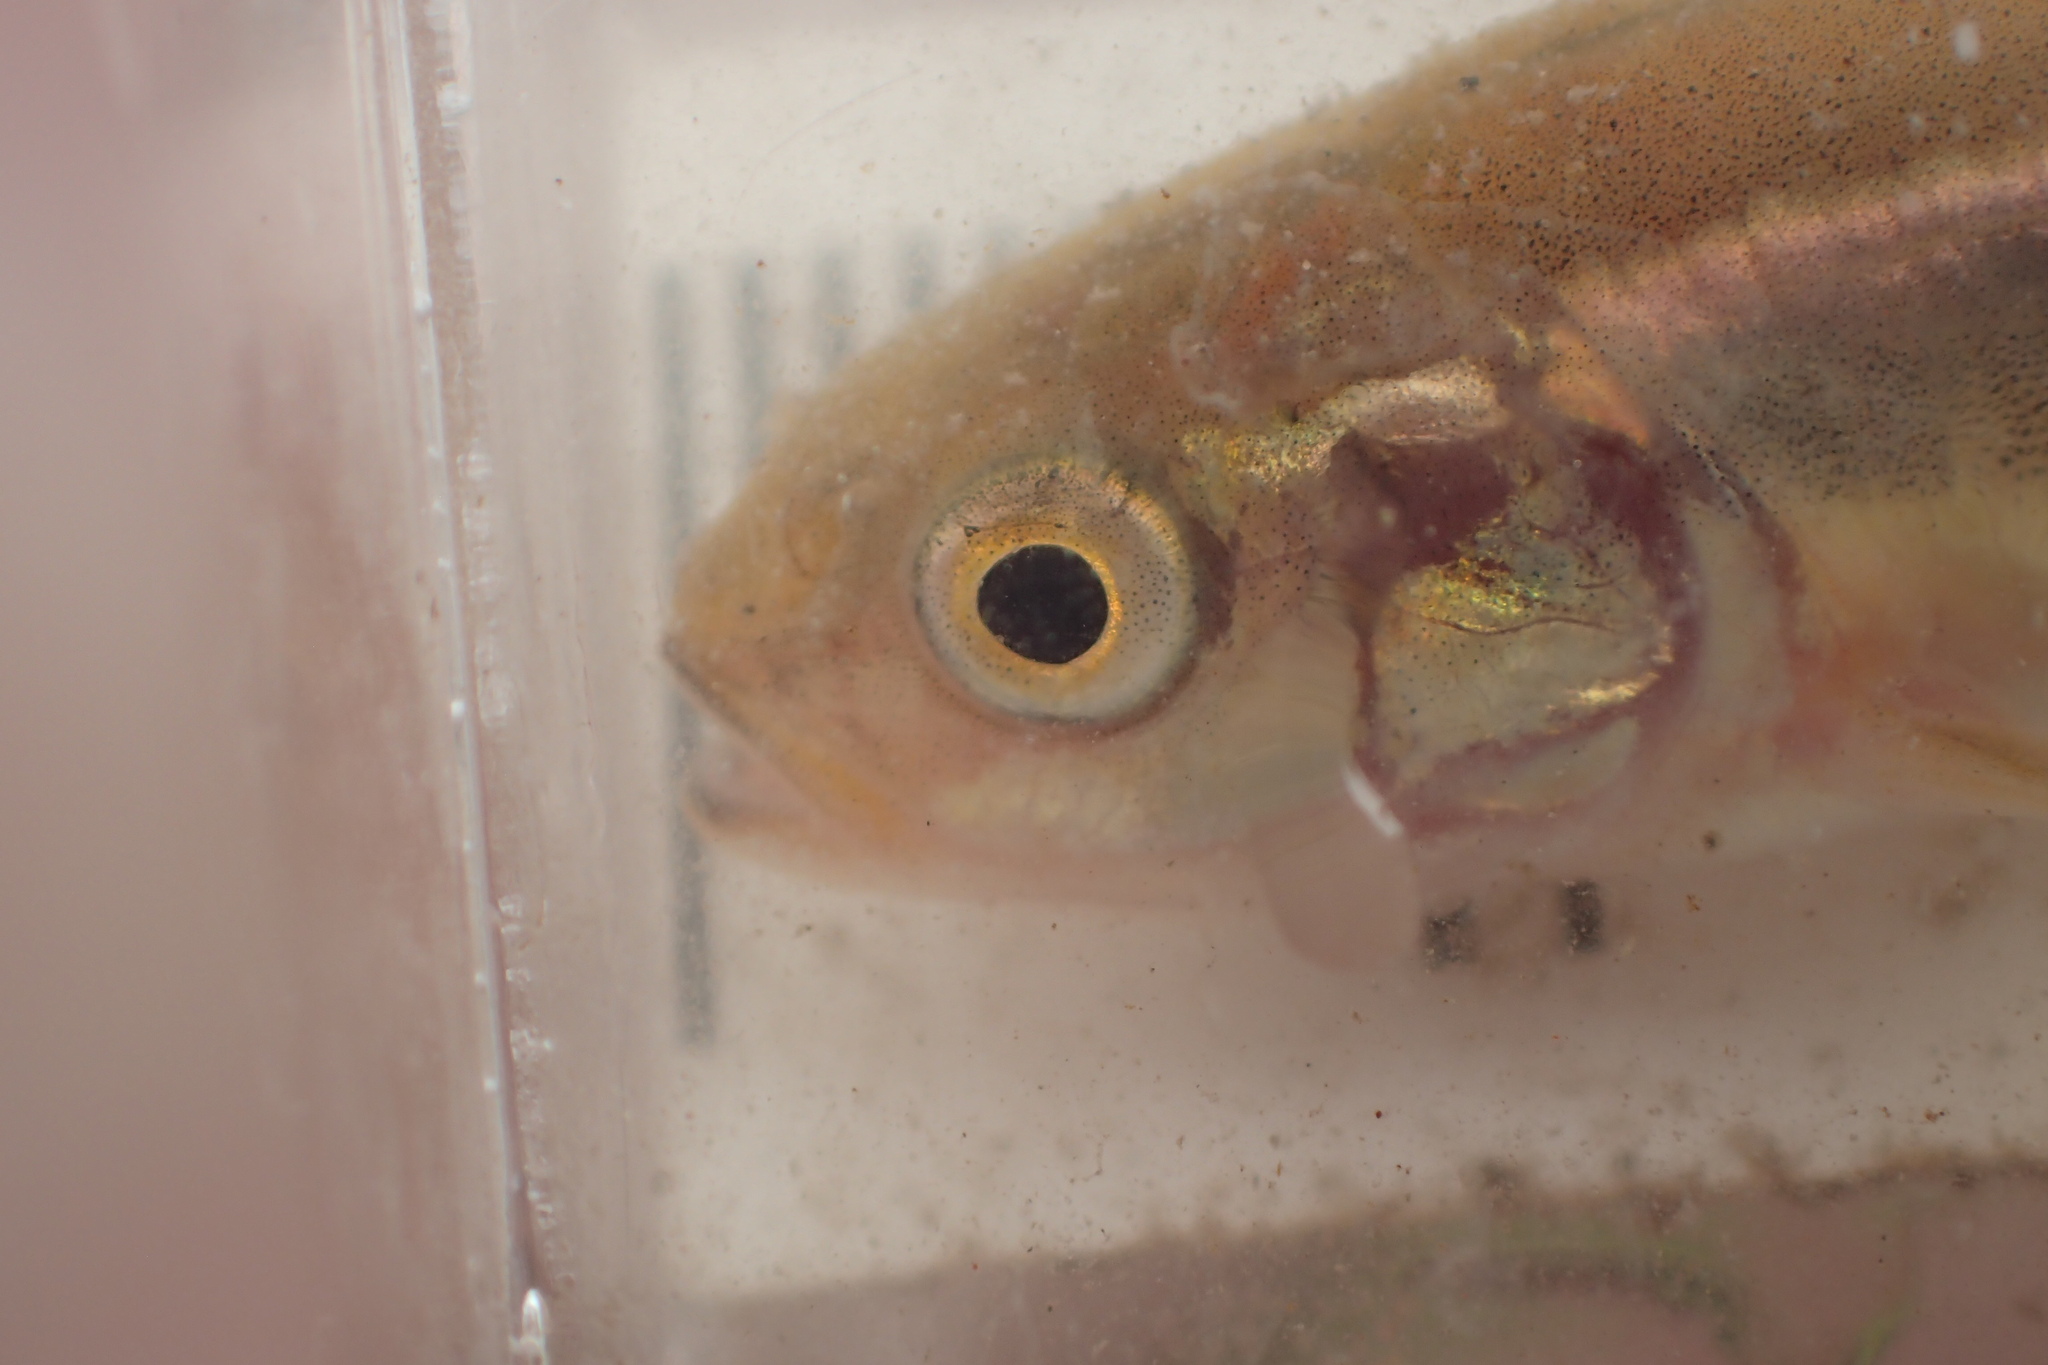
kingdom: Animalia
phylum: Chordata
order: Cypriniformes
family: Cyprinidae
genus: Chrosomus
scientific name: Chrosomus neogaeus
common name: Finescale dace
